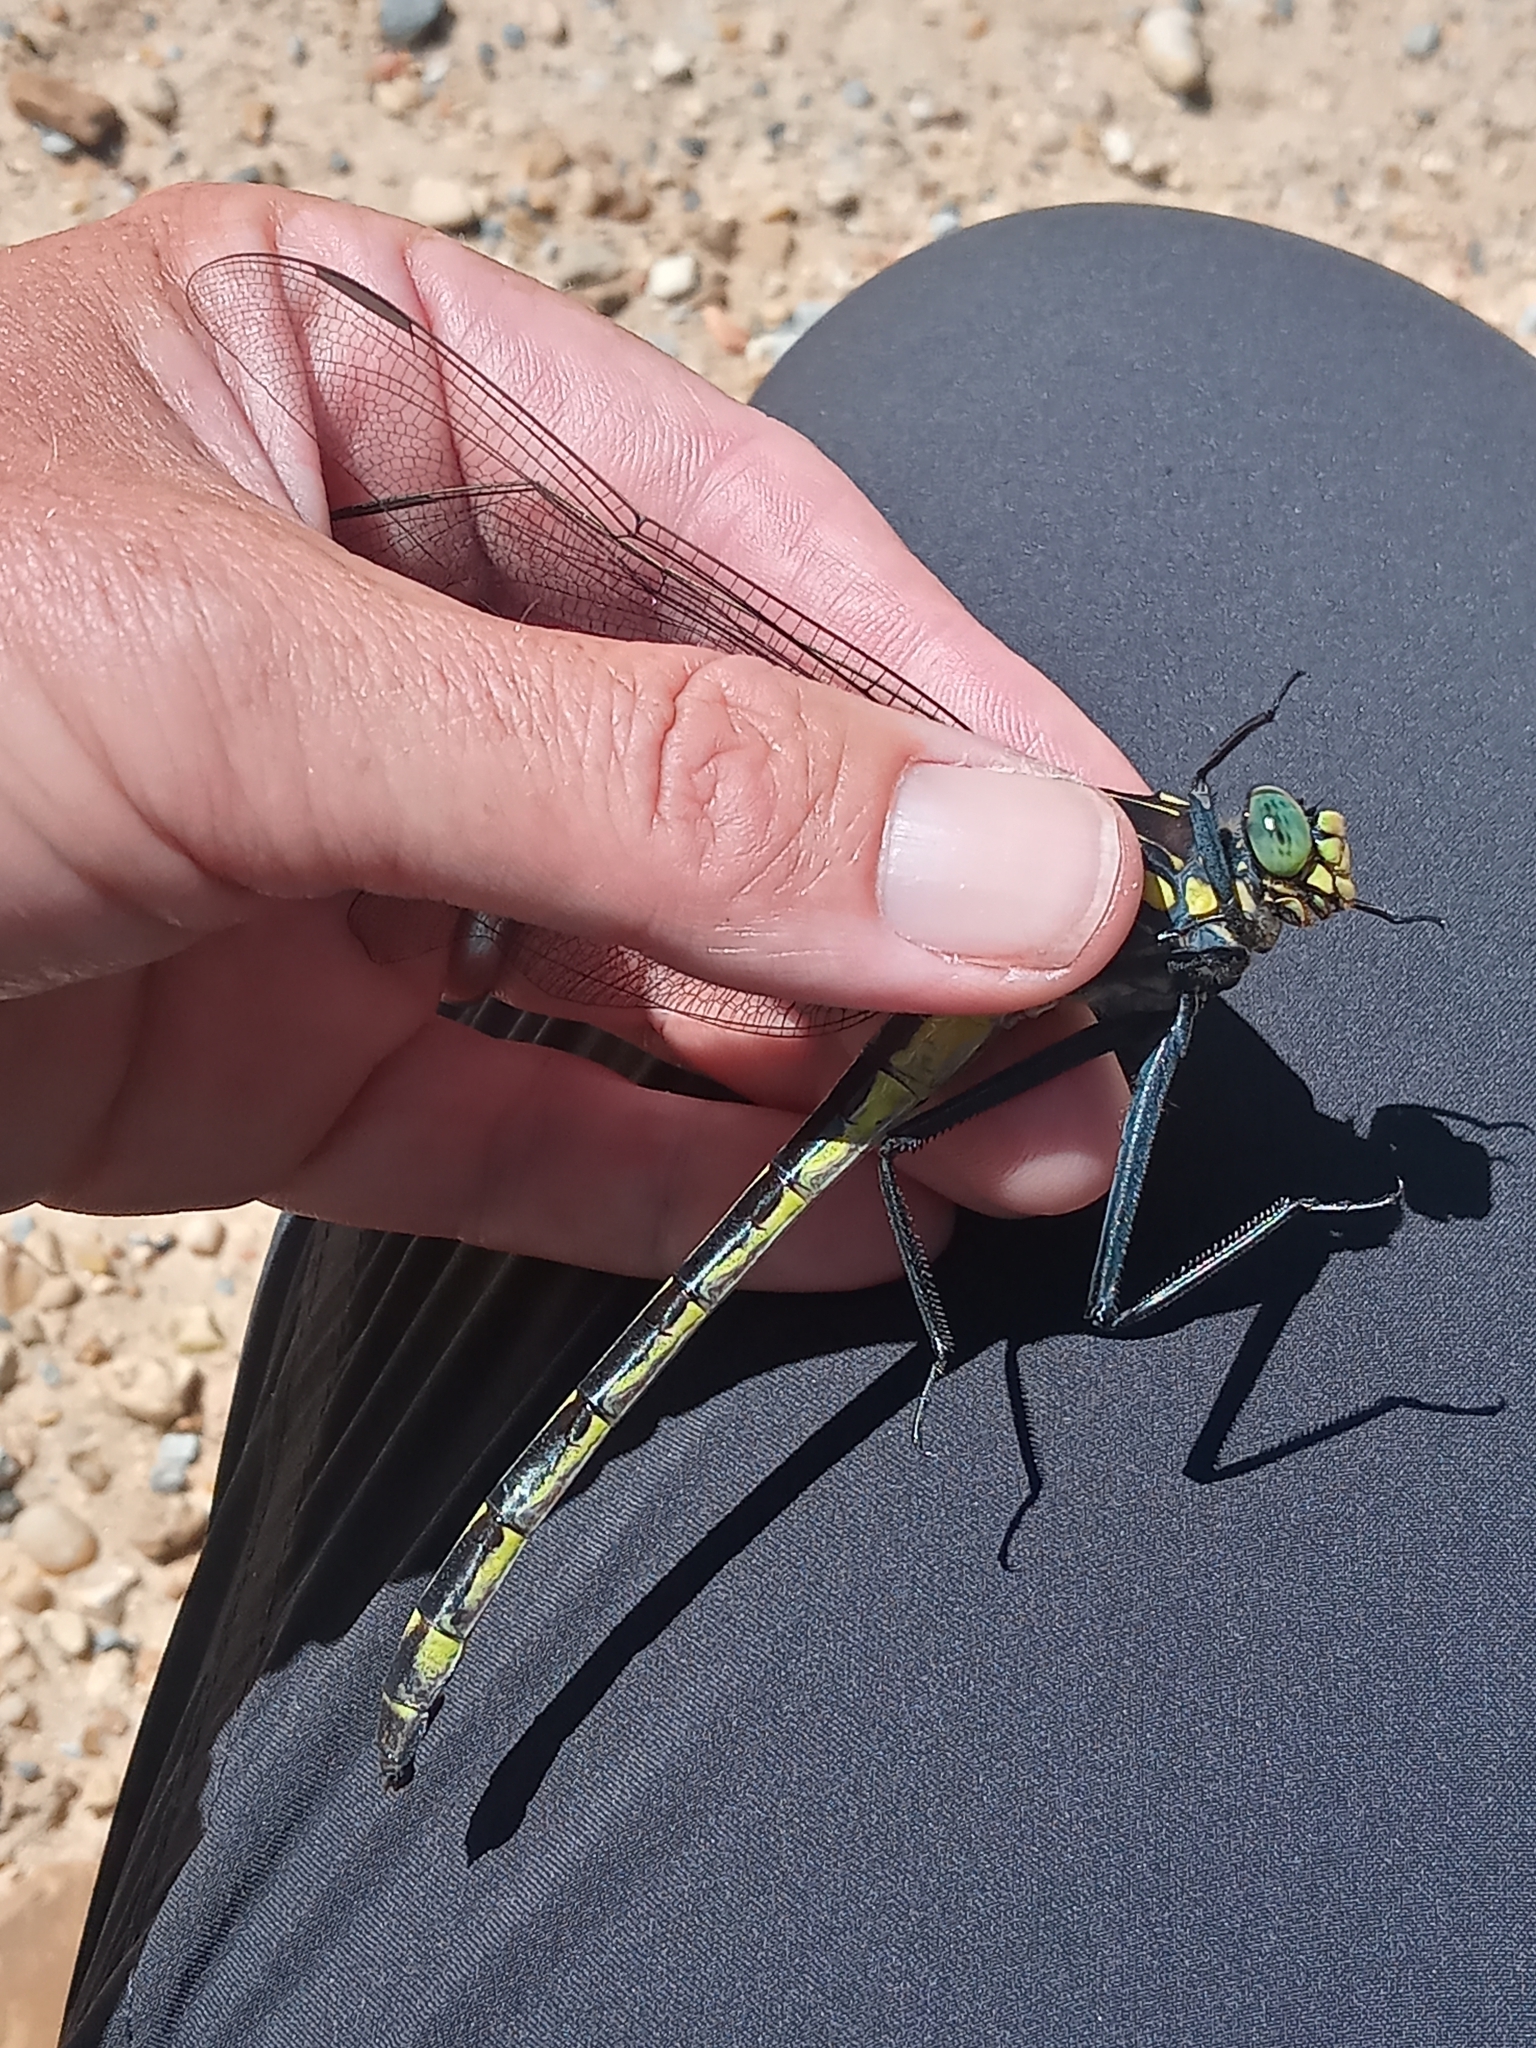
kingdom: Animalia
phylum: Arthropoda
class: Insecta
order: Odonata
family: Gomphidae
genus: Hagenius
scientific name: Hagenius brevistylus
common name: Dragonhunter
